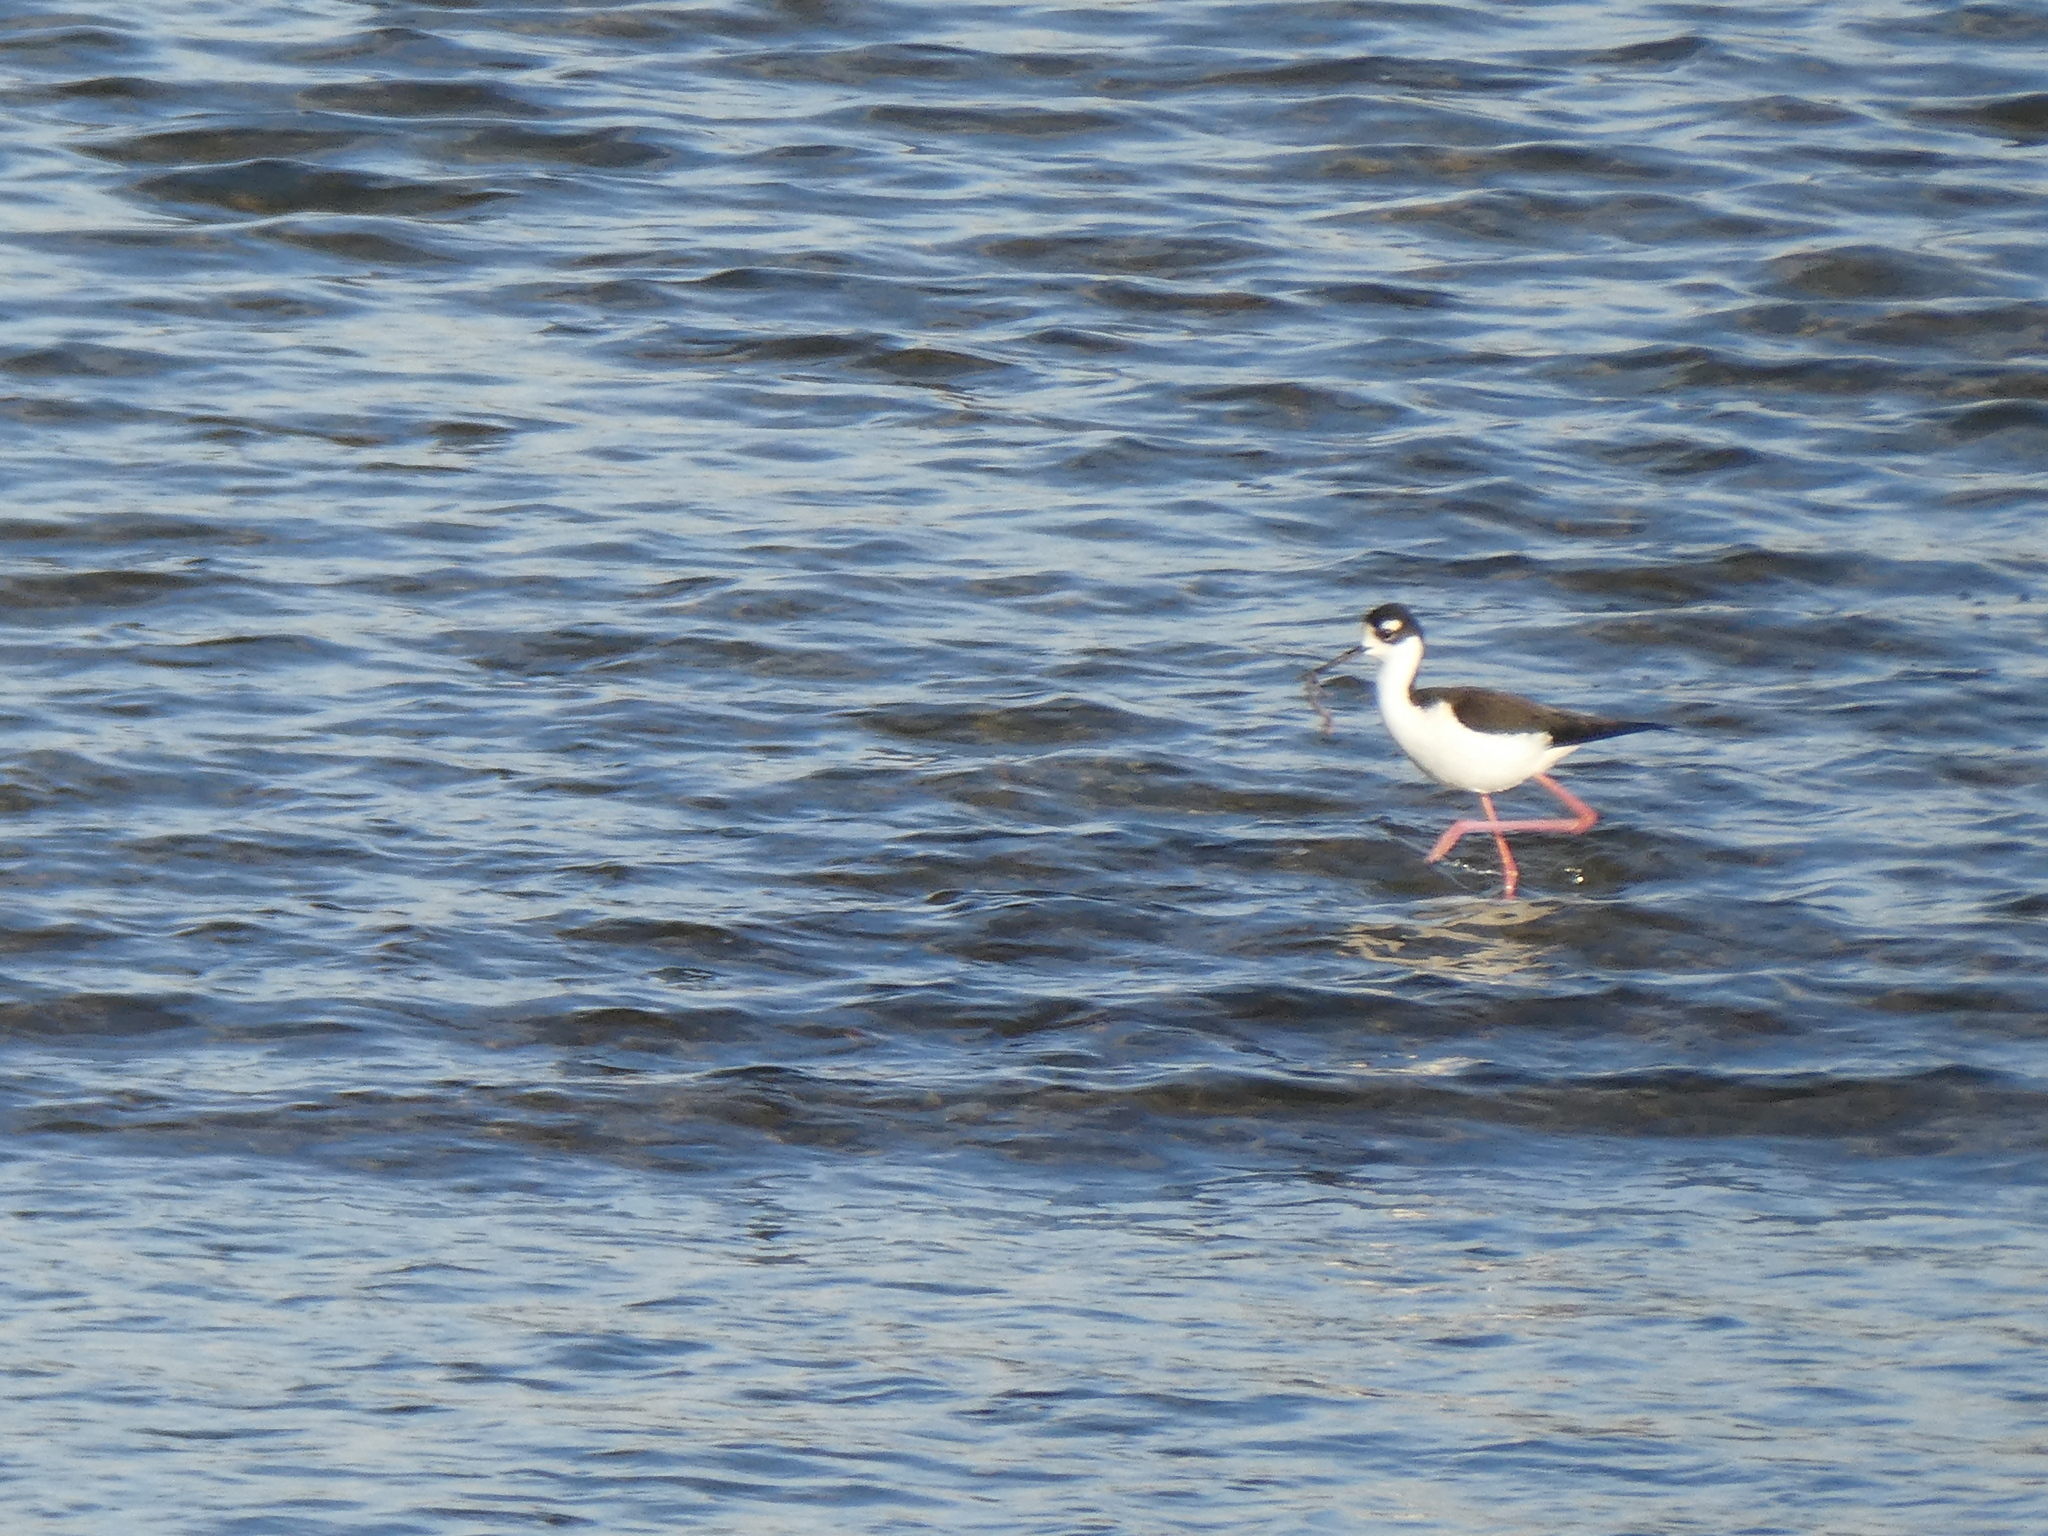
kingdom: Animalia
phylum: Chordata
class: Aves
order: Charadriiformes
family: Recurvirostridae
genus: Himantopus
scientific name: Himantopus mexicanus
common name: Black-necked stilt
